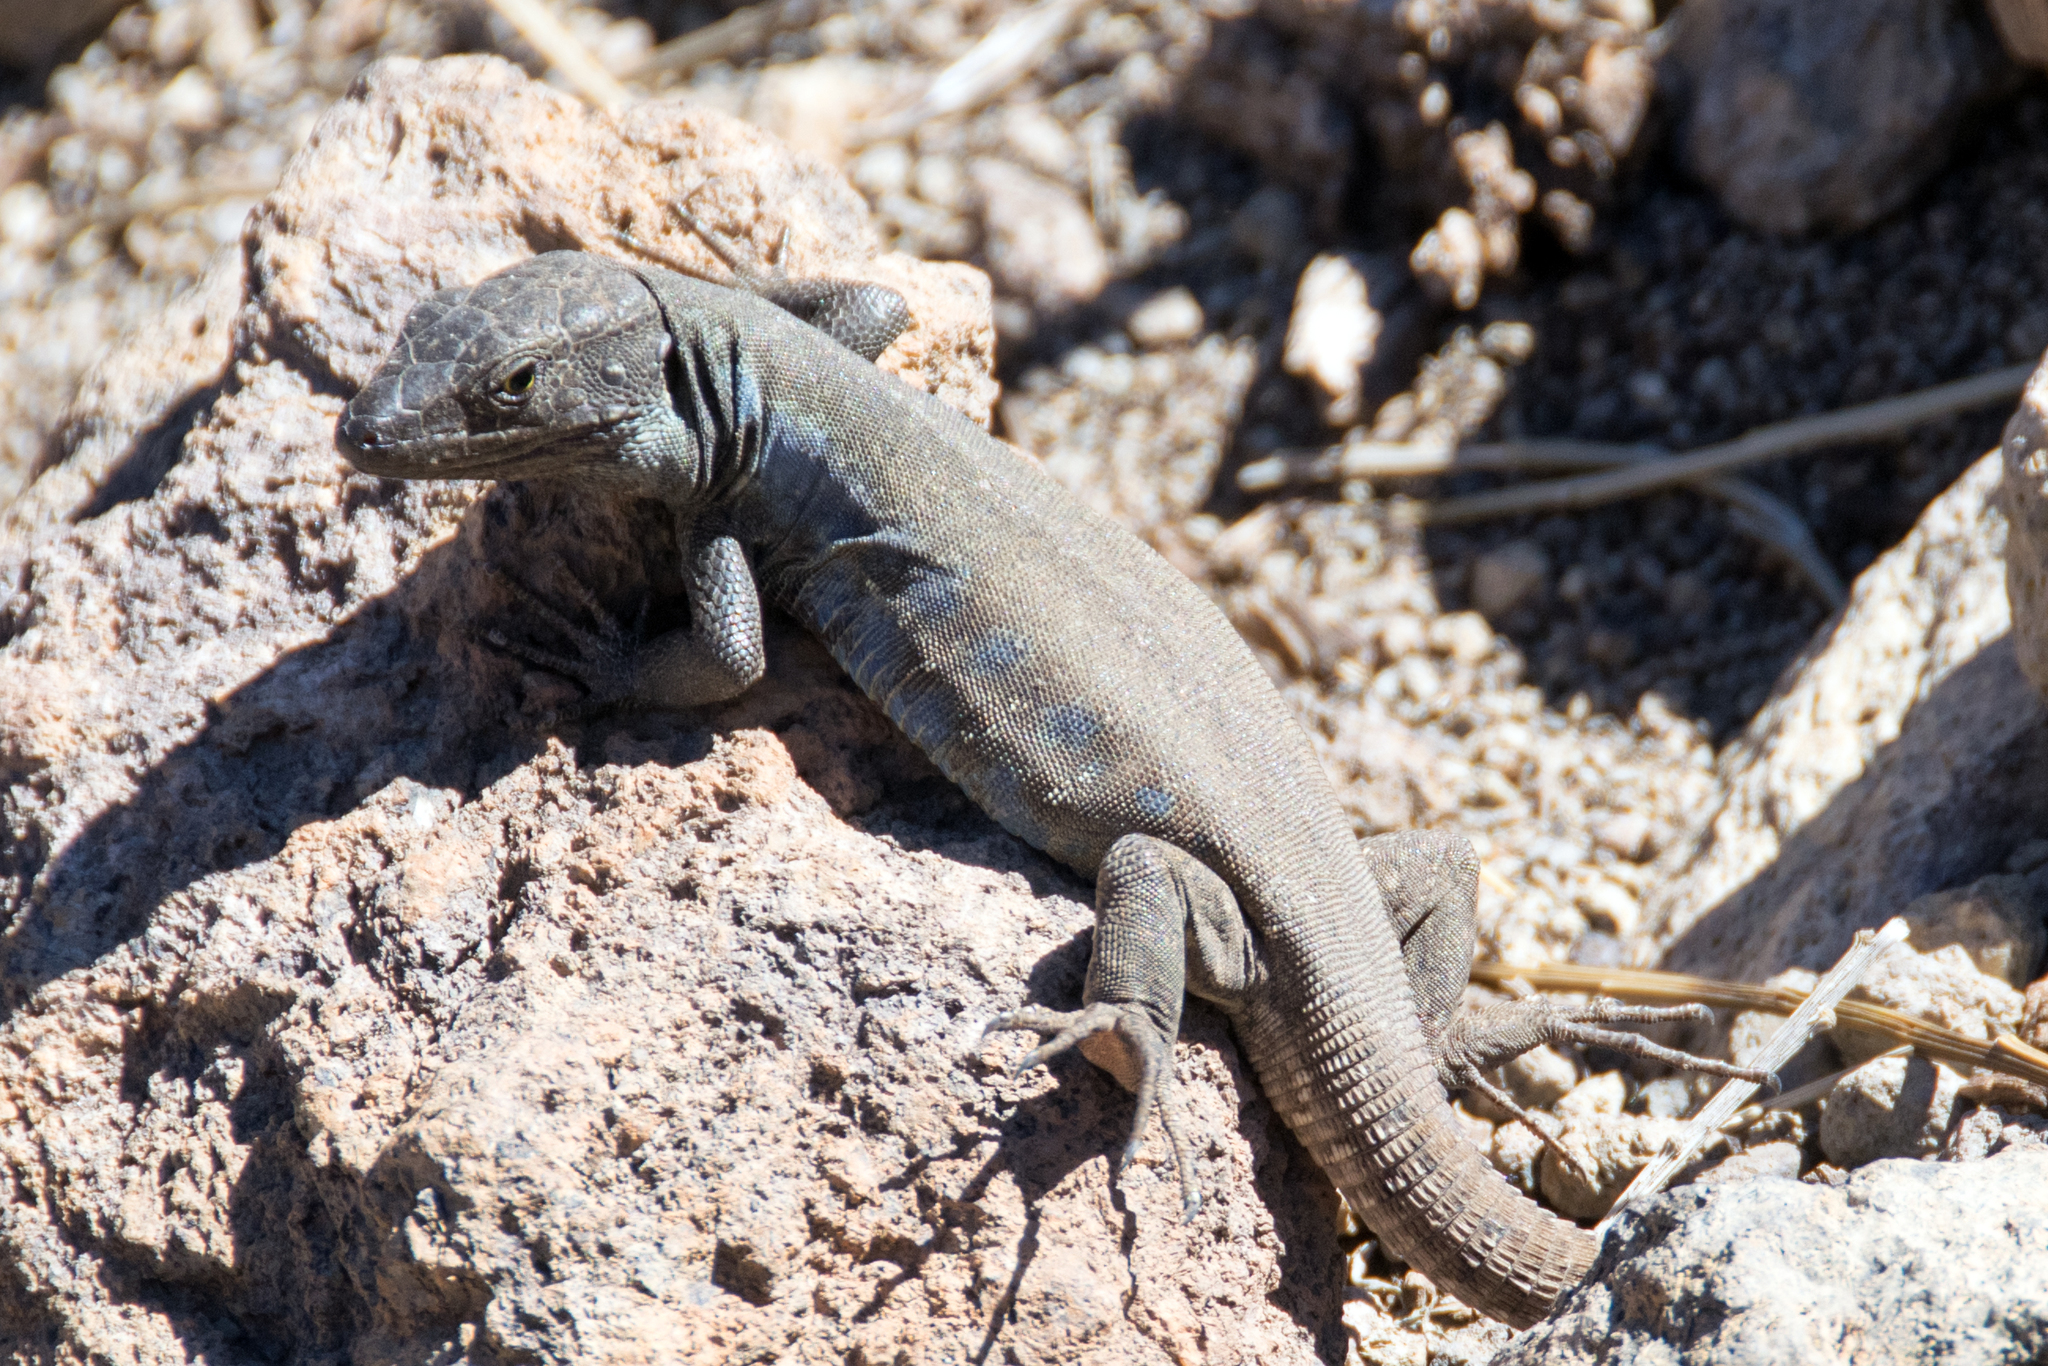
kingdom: Animalia
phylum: Chordata
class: Squamata
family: Lacertidae
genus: Gallotia
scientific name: Gallotia galloti
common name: Gallot's lizard
